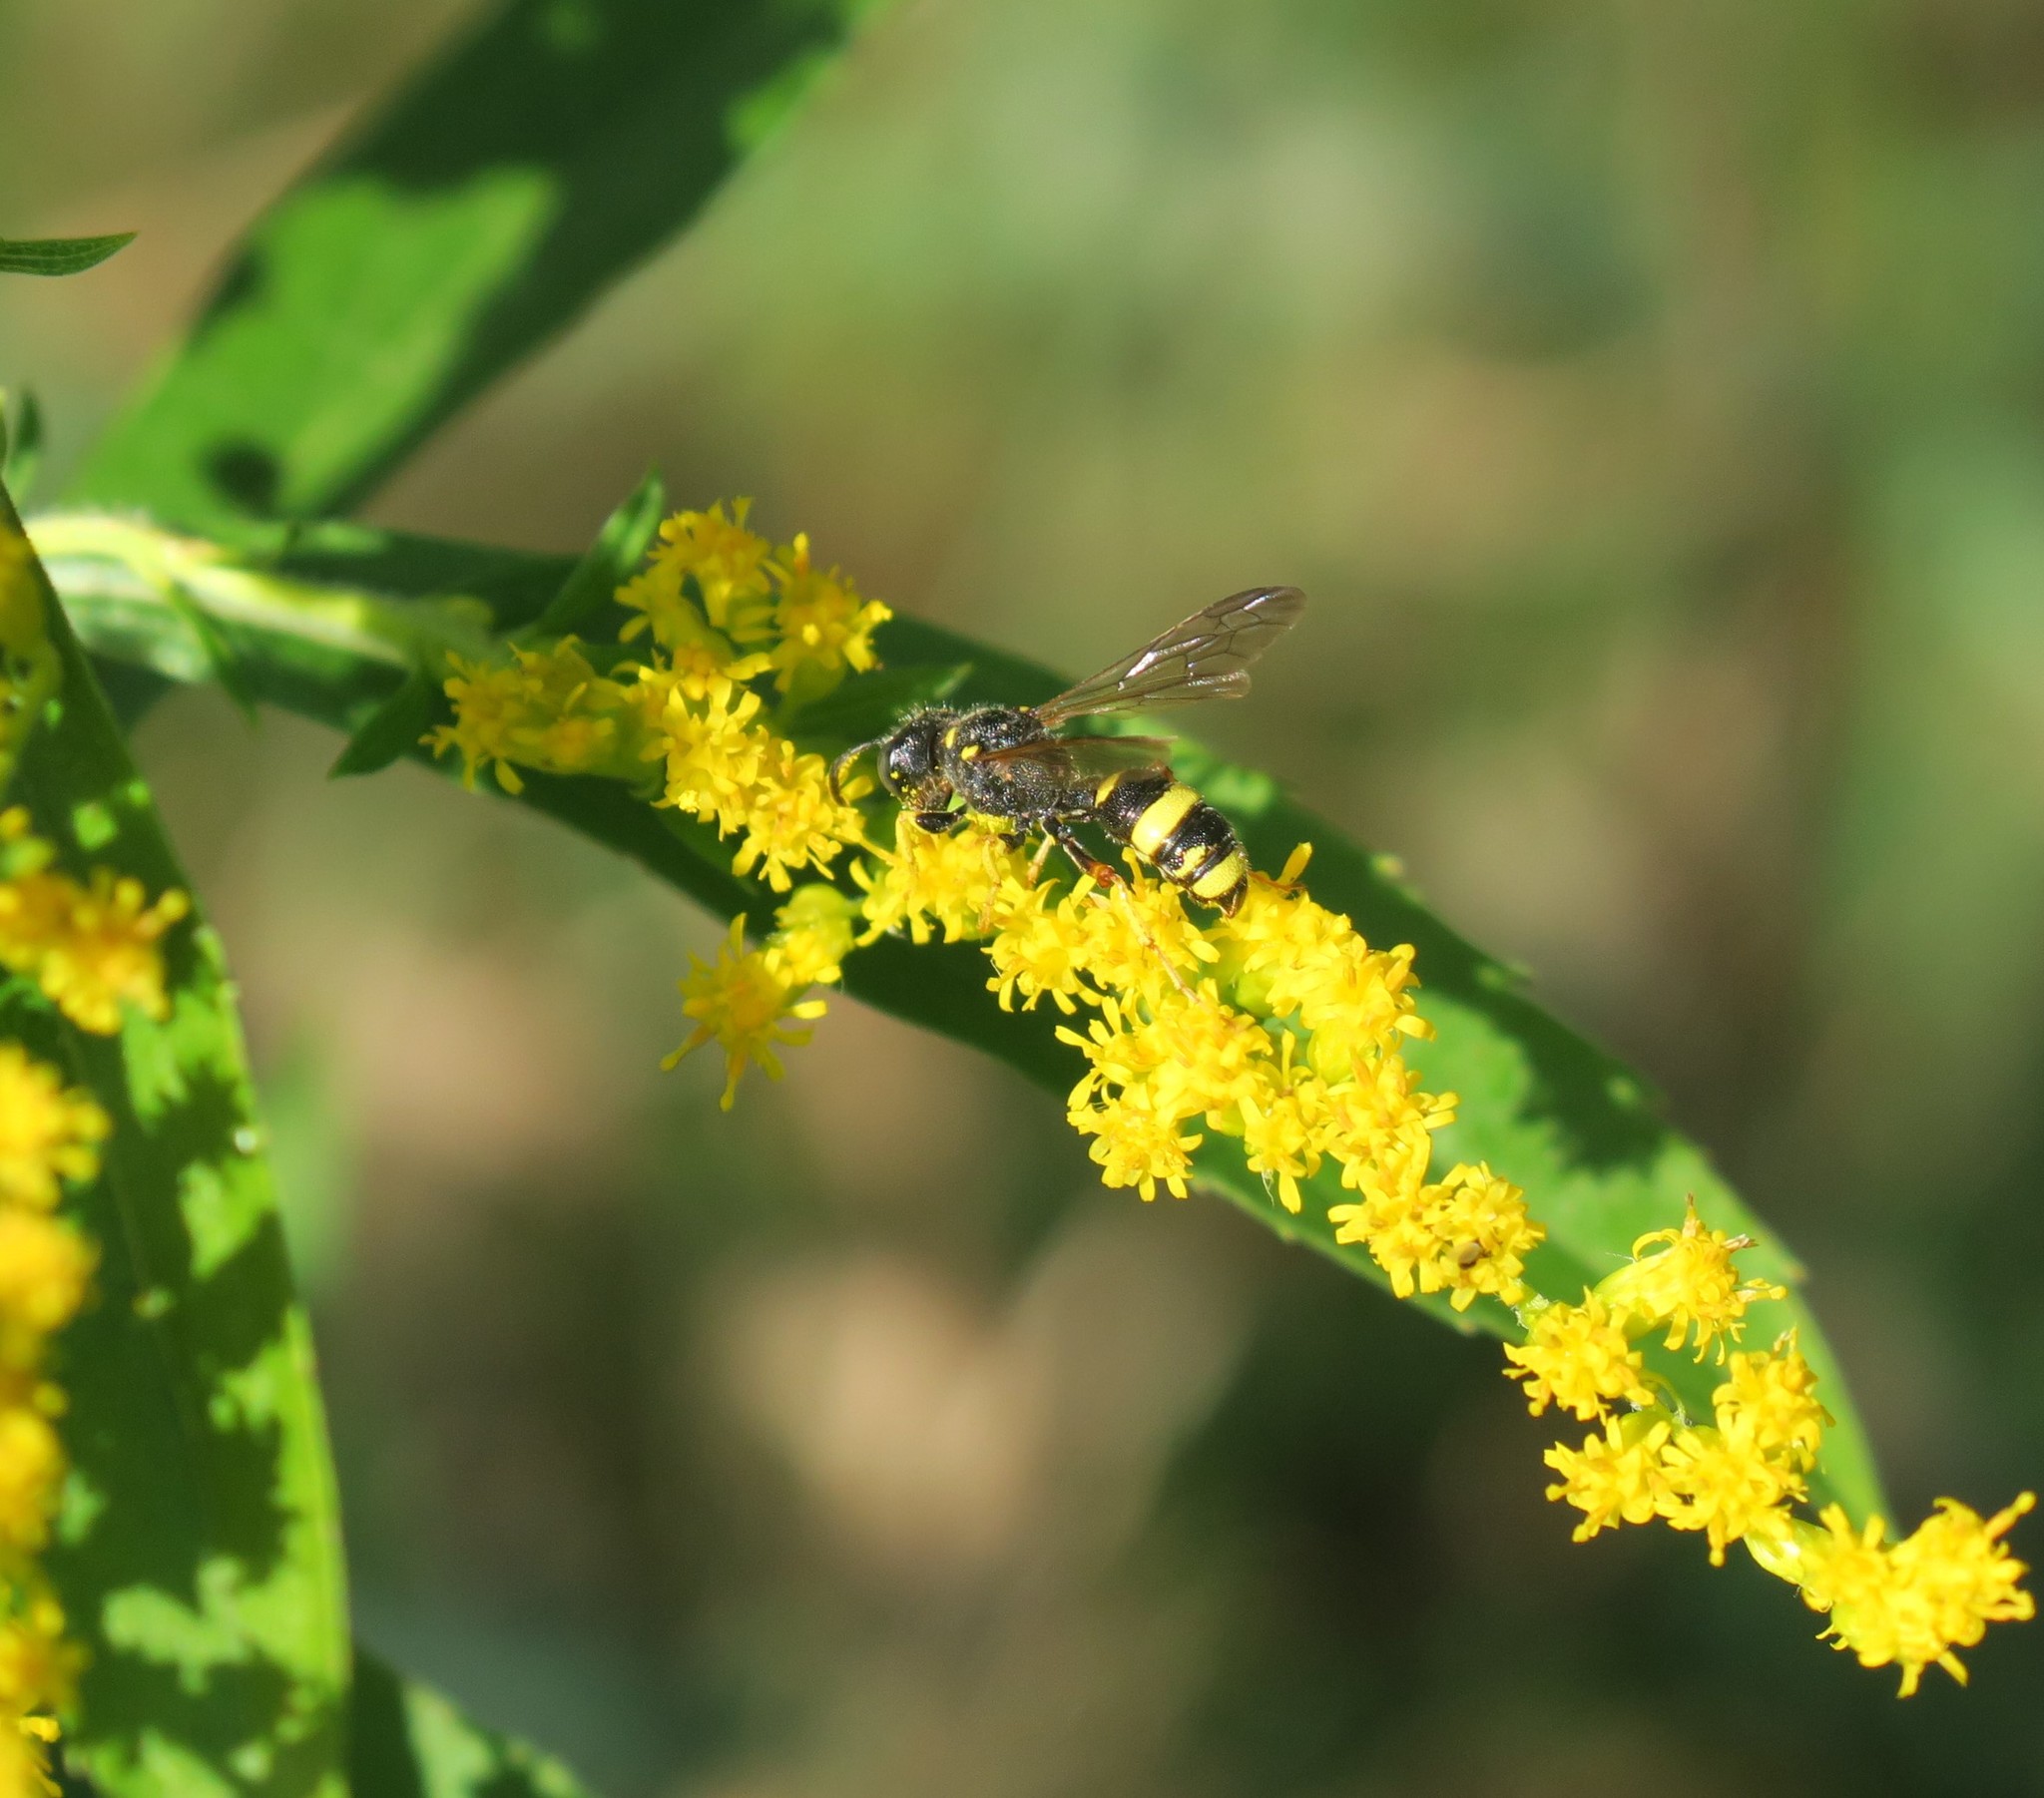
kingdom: Animalia
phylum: Arthropoda
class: Insecta
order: Hymenoptera
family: Crabronidae
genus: Cerceris
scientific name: Cerceris rybyensis
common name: Ornate tailed digger wasp
